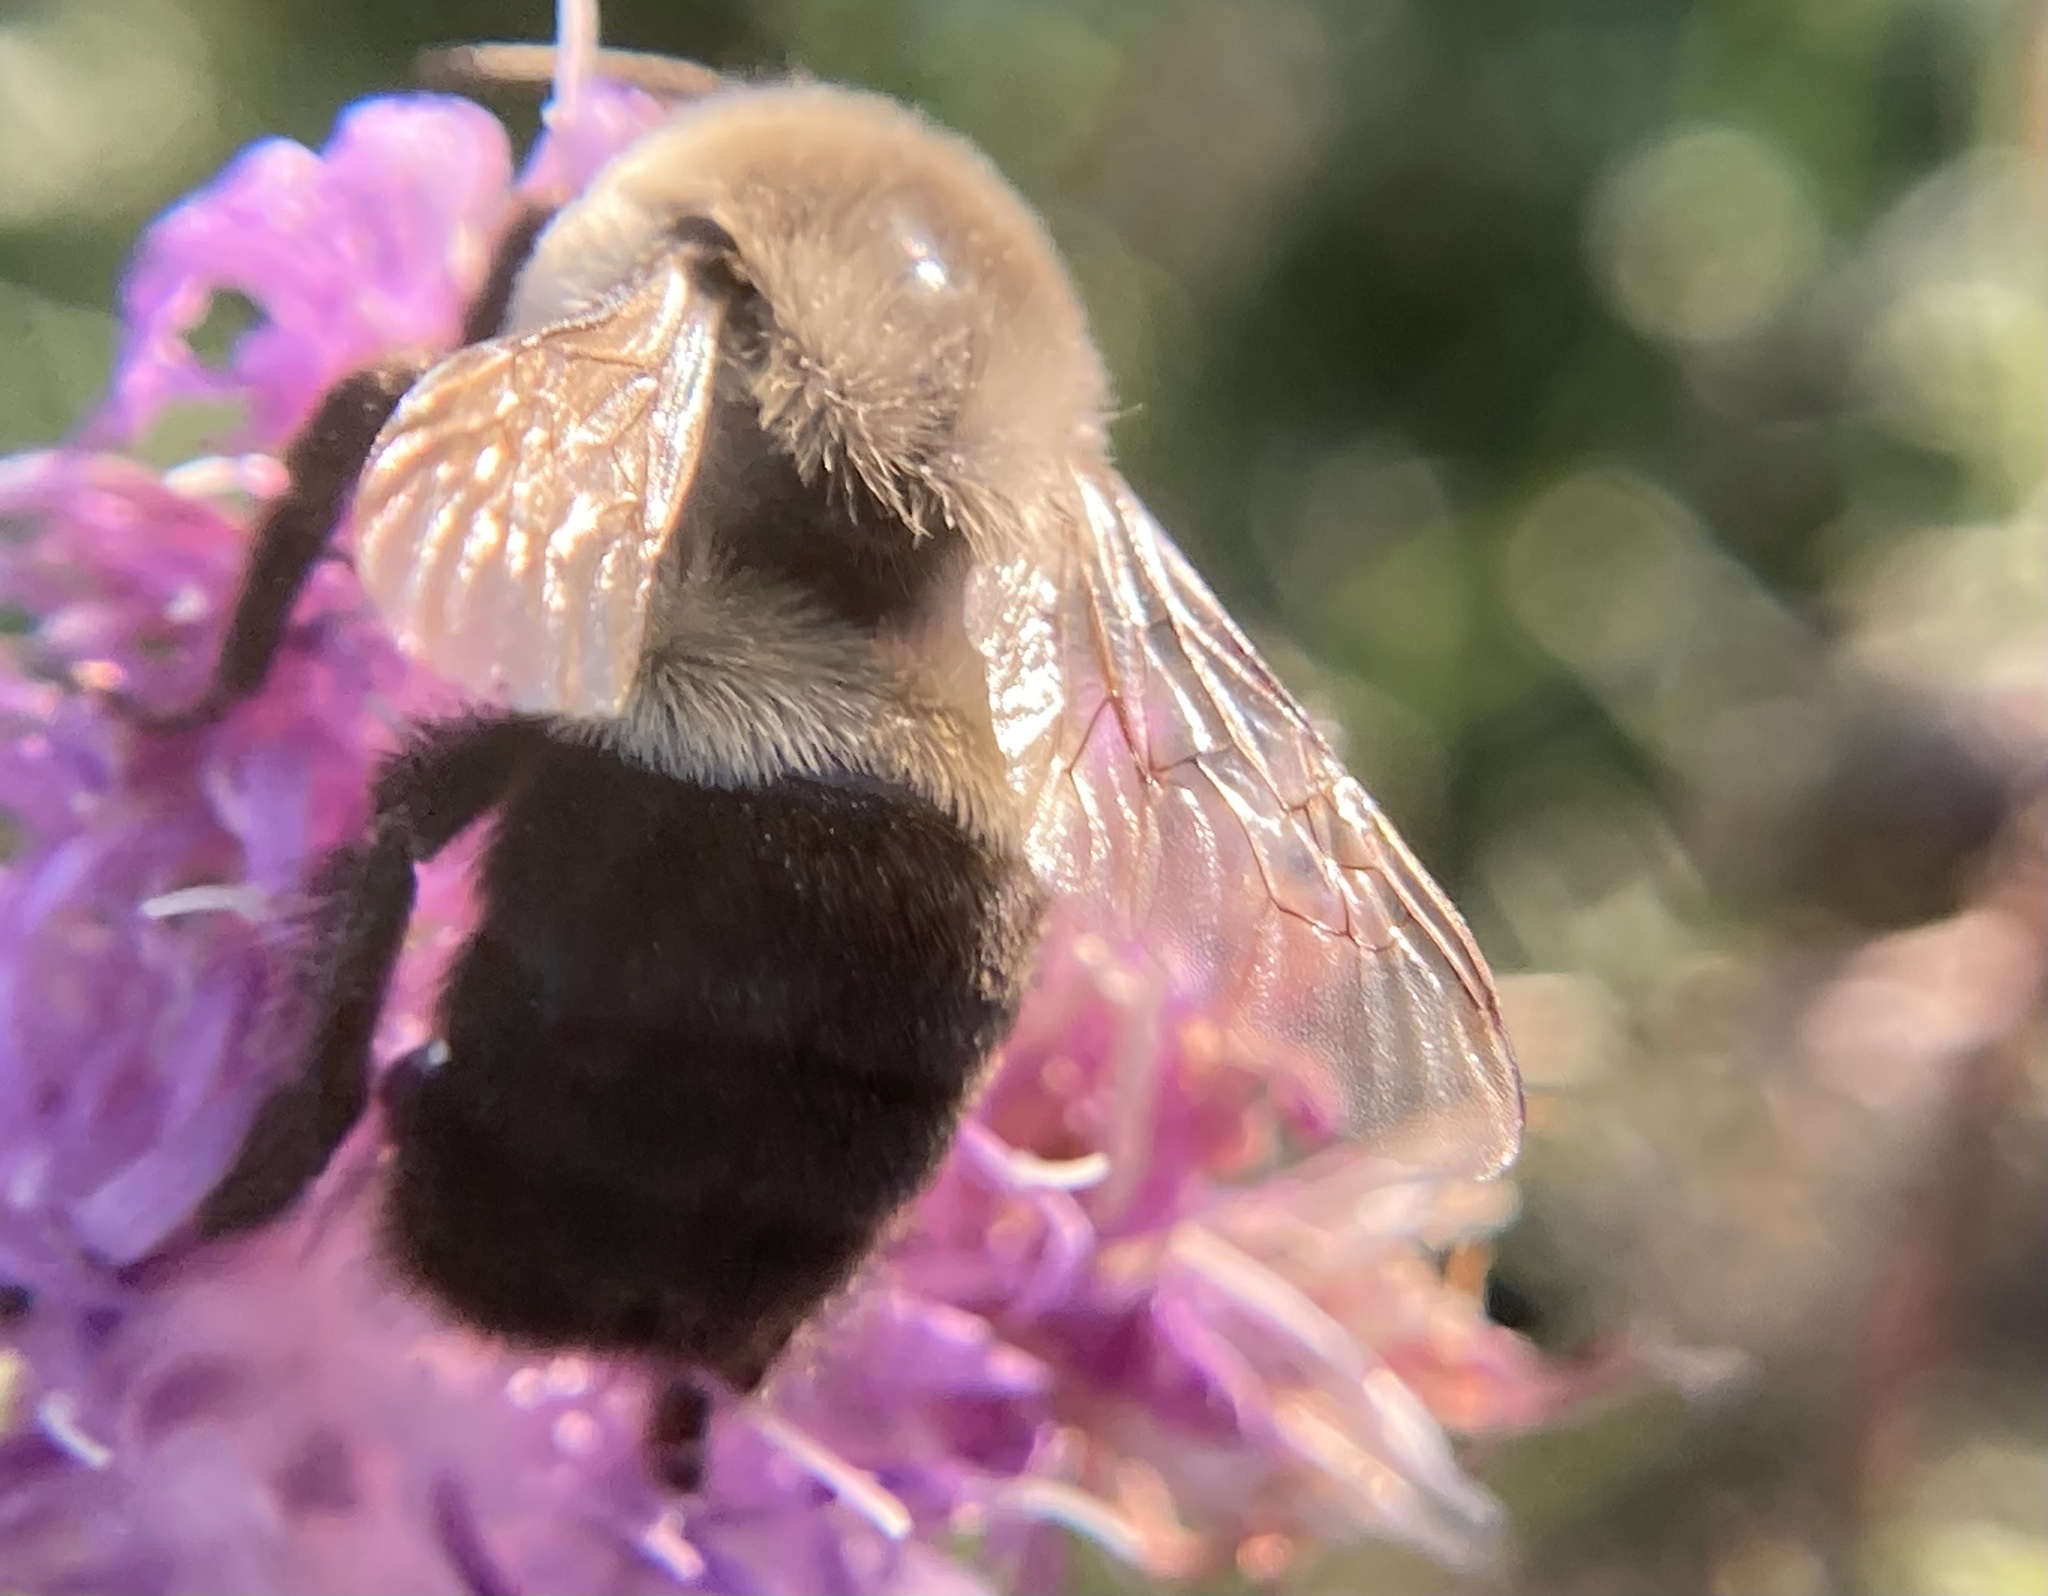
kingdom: Animalia
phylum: Arthropoda
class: Insecta
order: Hymenoptera
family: Apidae
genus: Bombus
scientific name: Bombus impatiens
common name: Common eastern bumble bee
